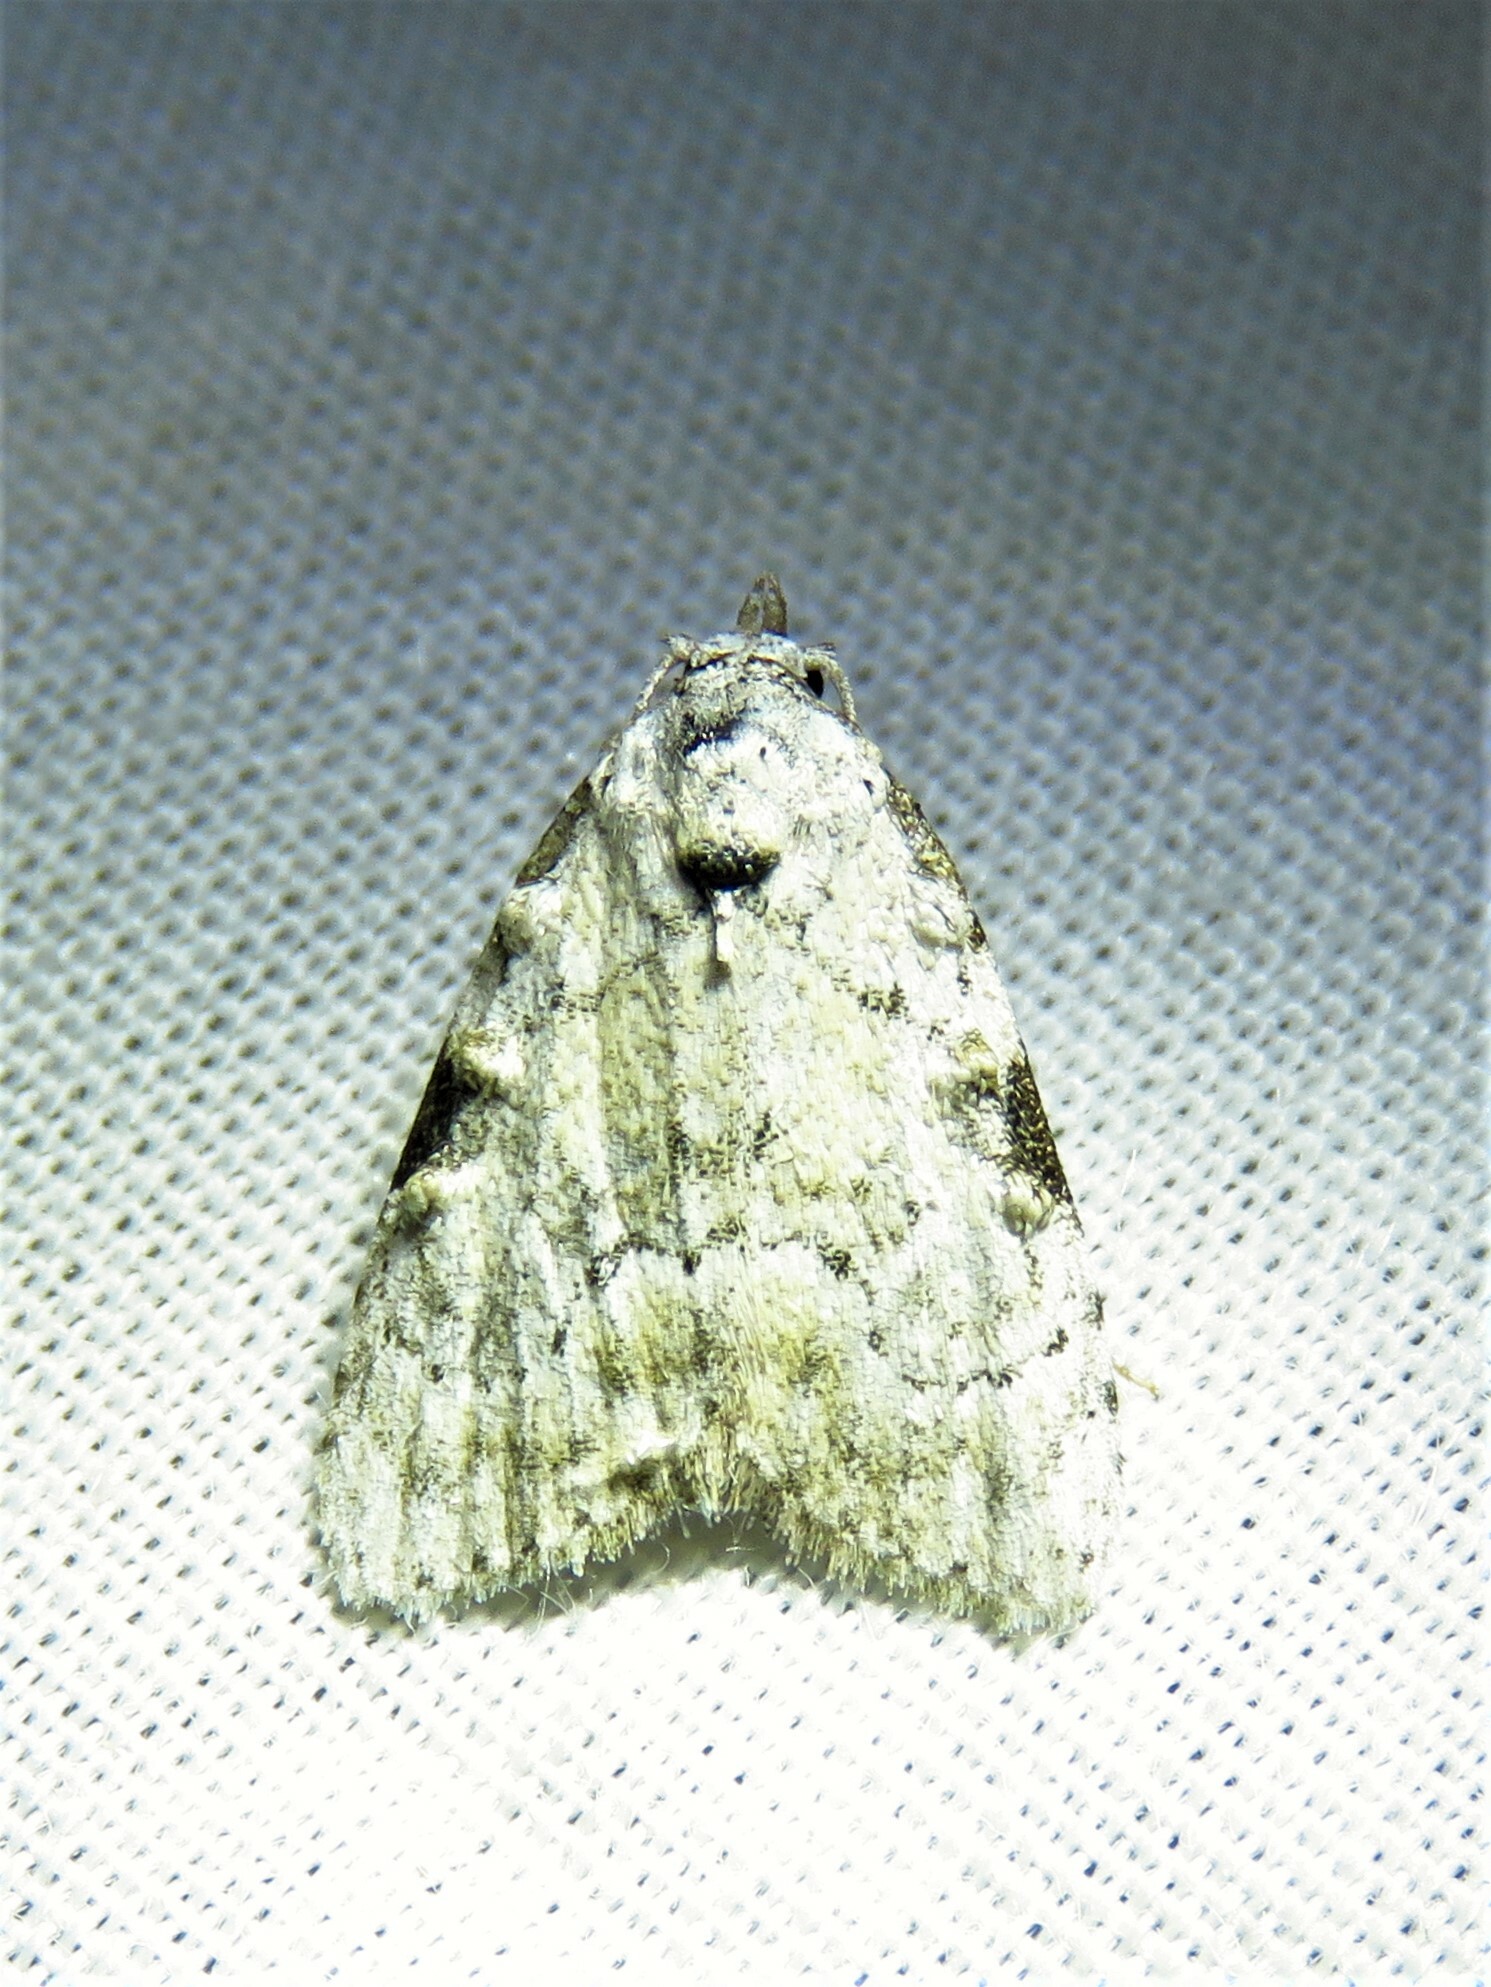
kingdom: Animalia
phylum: Arthropoda
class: Insecta
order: Lepidoptera
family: Nolidae
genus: Meganola
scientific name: Meganola minuscula
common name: Confused meganola moth
